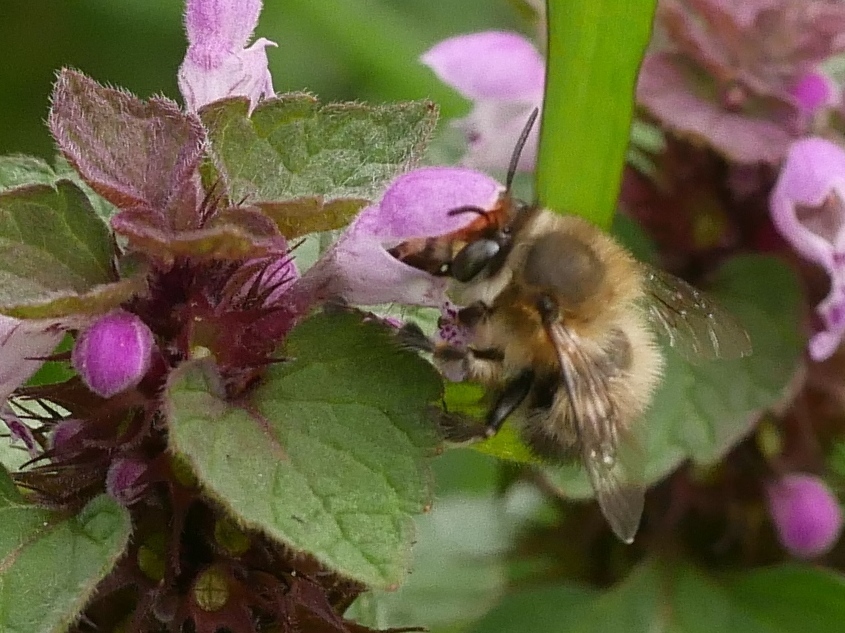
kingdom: Animalia
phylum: Arthropoda
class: Insecta
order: Hymenoptera
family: Apidae
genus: Anthophora
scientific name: Anthophora plumipes
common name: Hairy-footed flower bee
